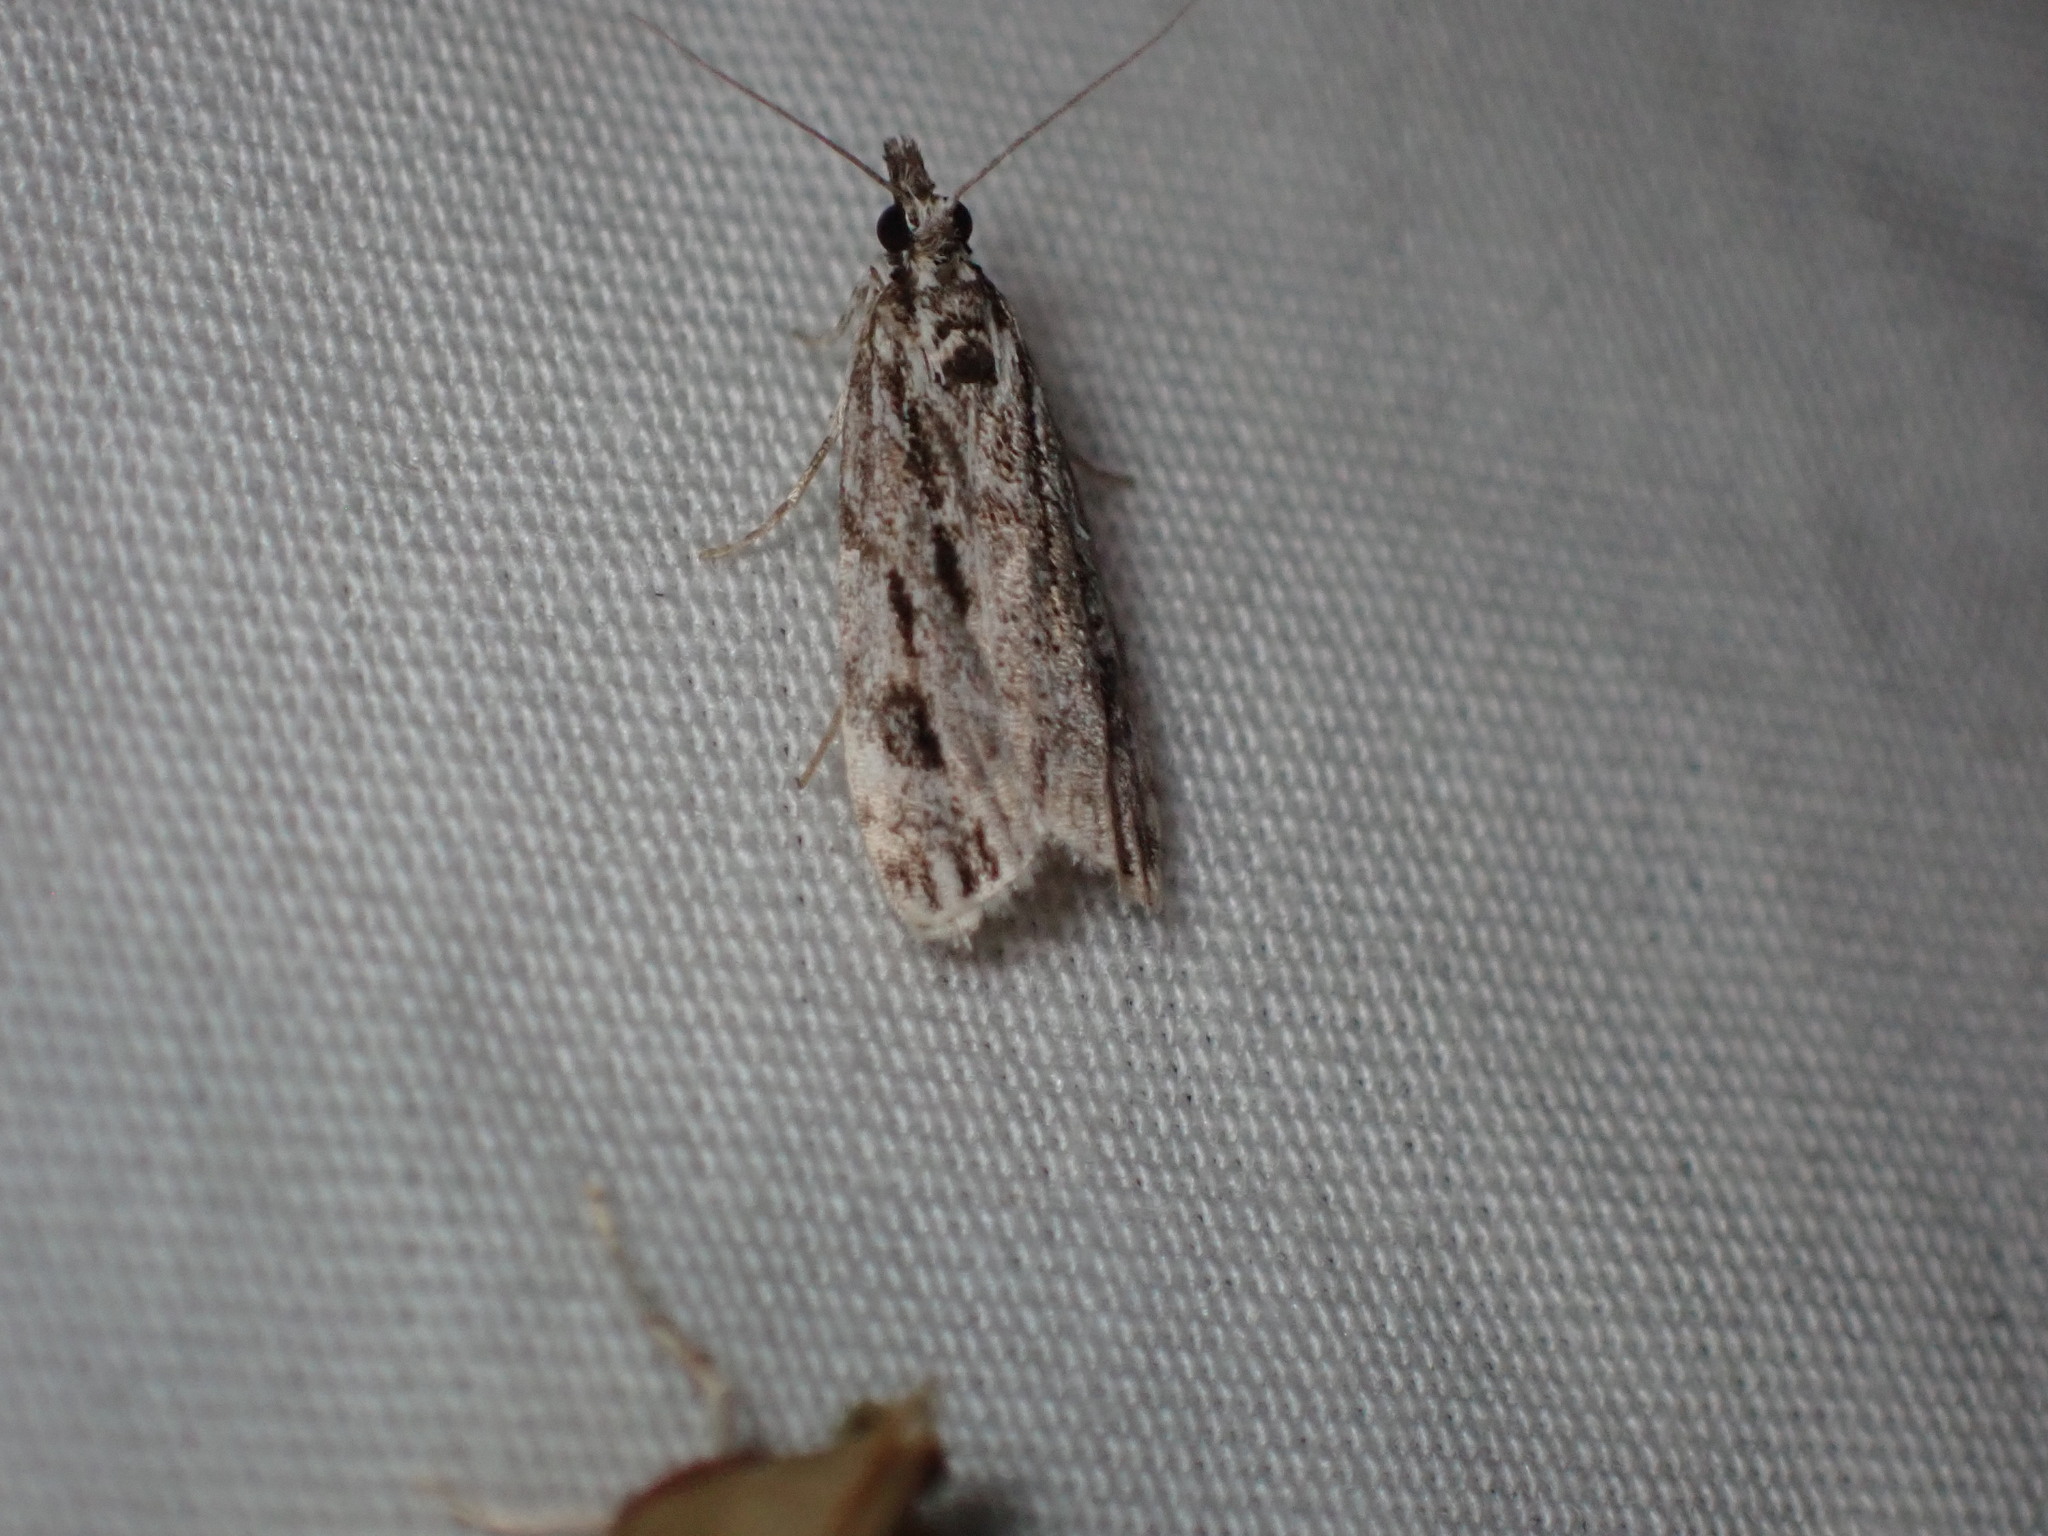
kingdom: Animalia
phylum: Arthropoda
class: Insecta
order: Lepidoptera
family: Crambidae
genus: Eudonia
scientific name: Eudonia strigalis
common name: Striped eudonia moth
